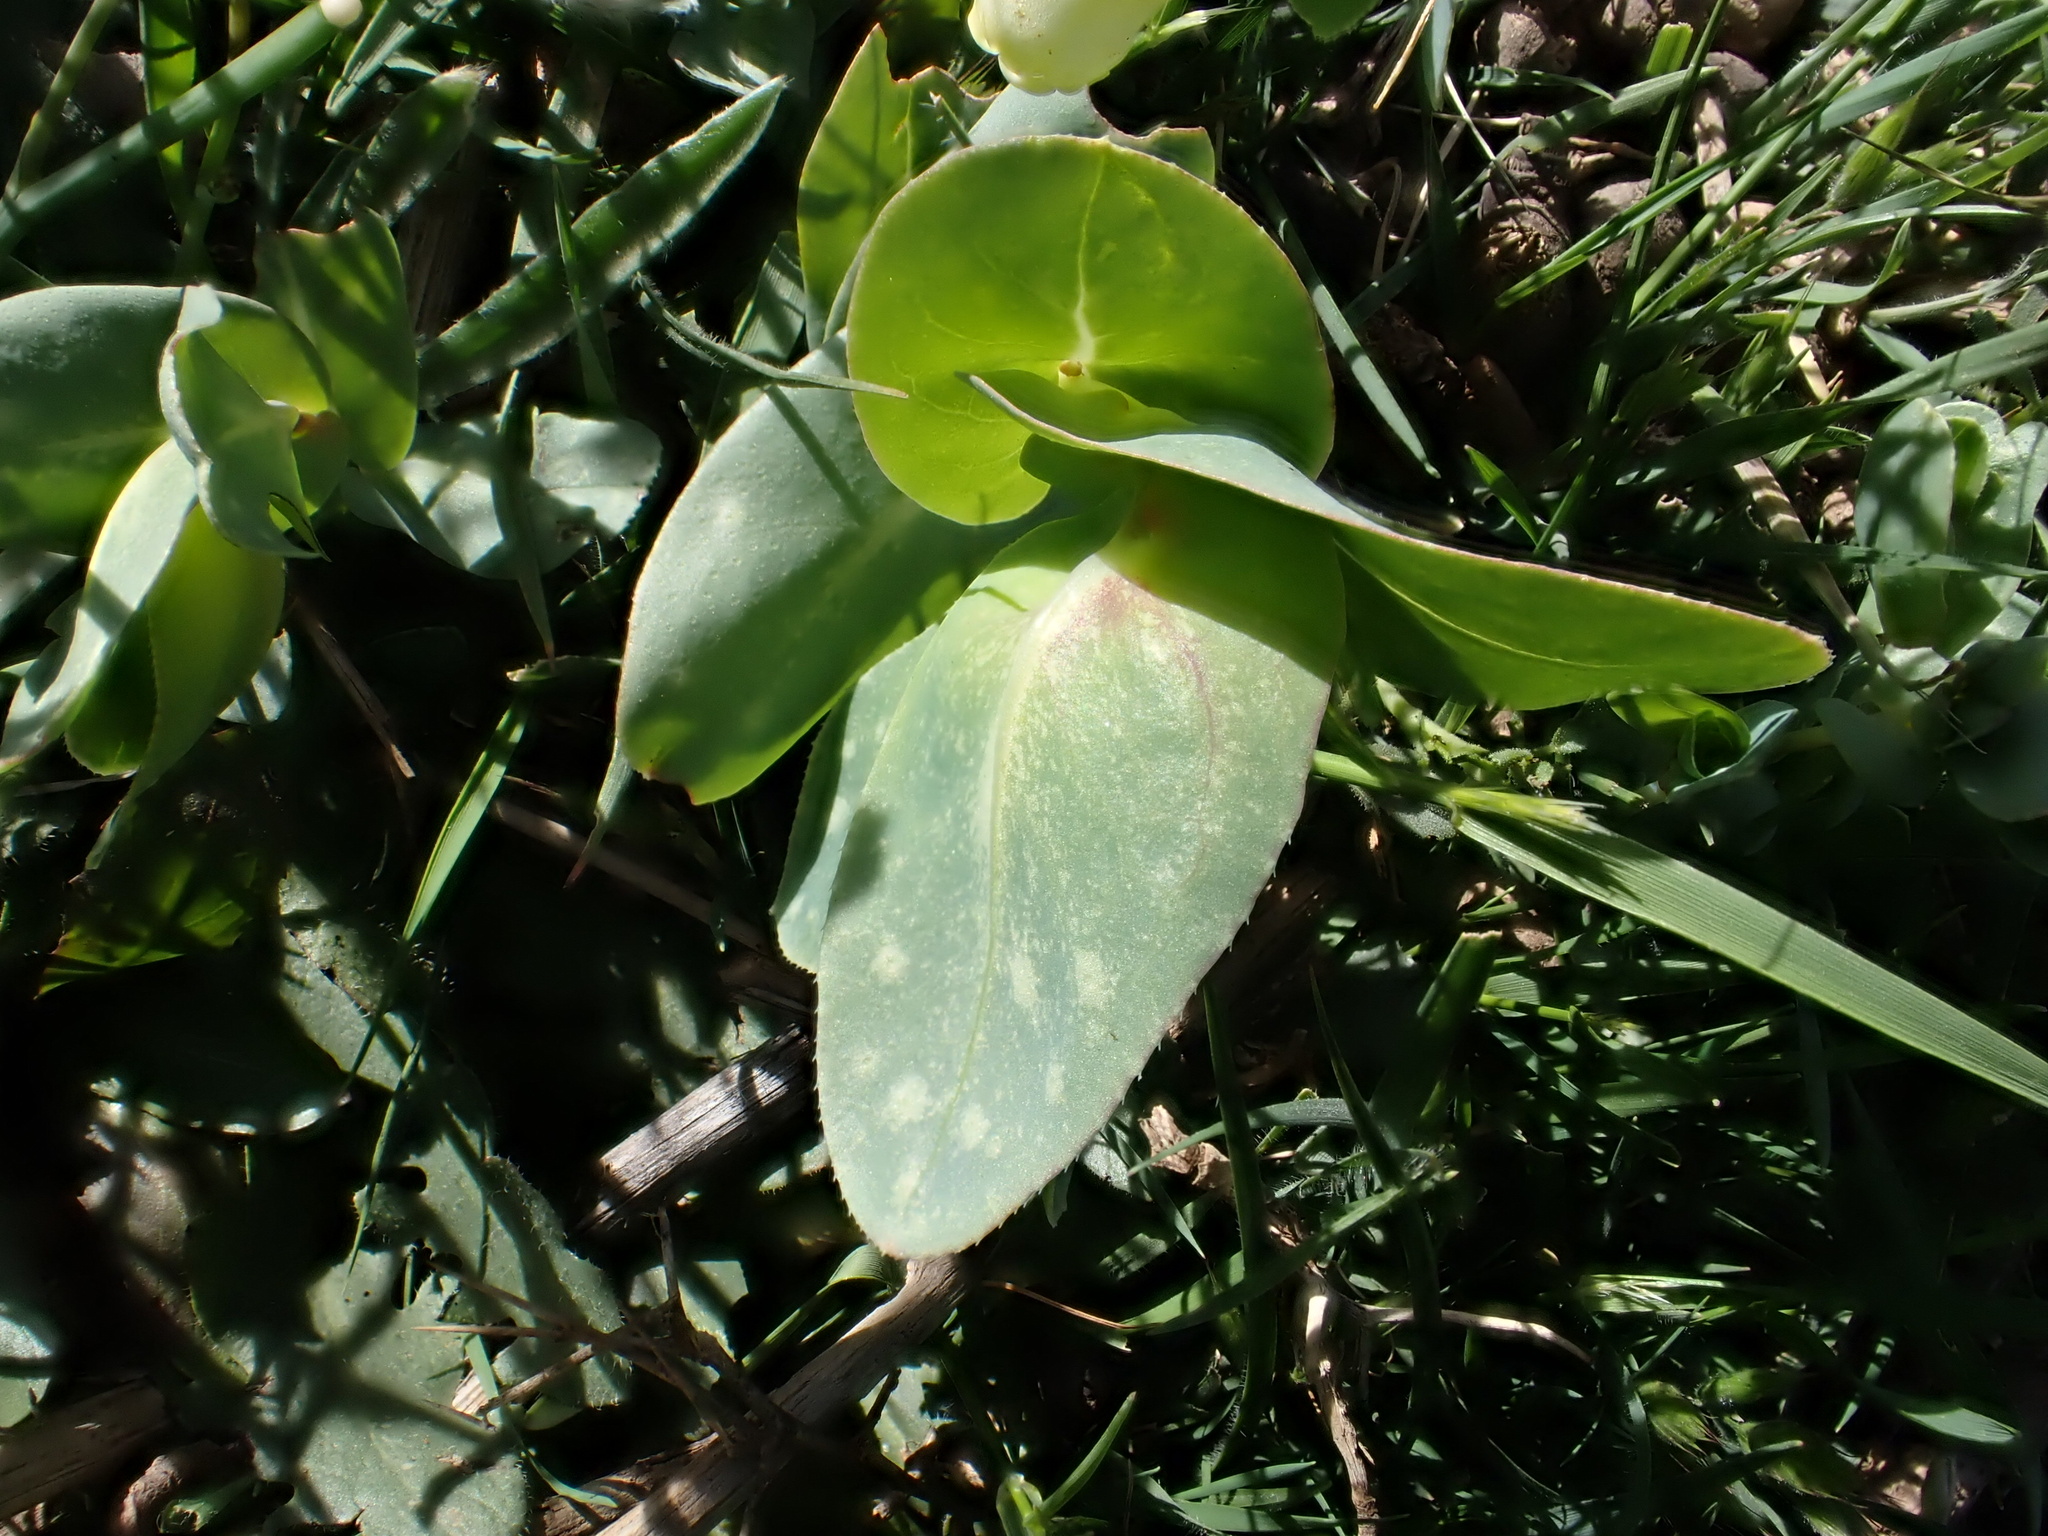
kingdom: Plantae
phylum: Tracheophyta
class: Magnoliopsida
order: Boraginales
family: Boraginaceae
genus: Cerinthe
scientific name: Cerinthe major
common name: Greater honeywort
